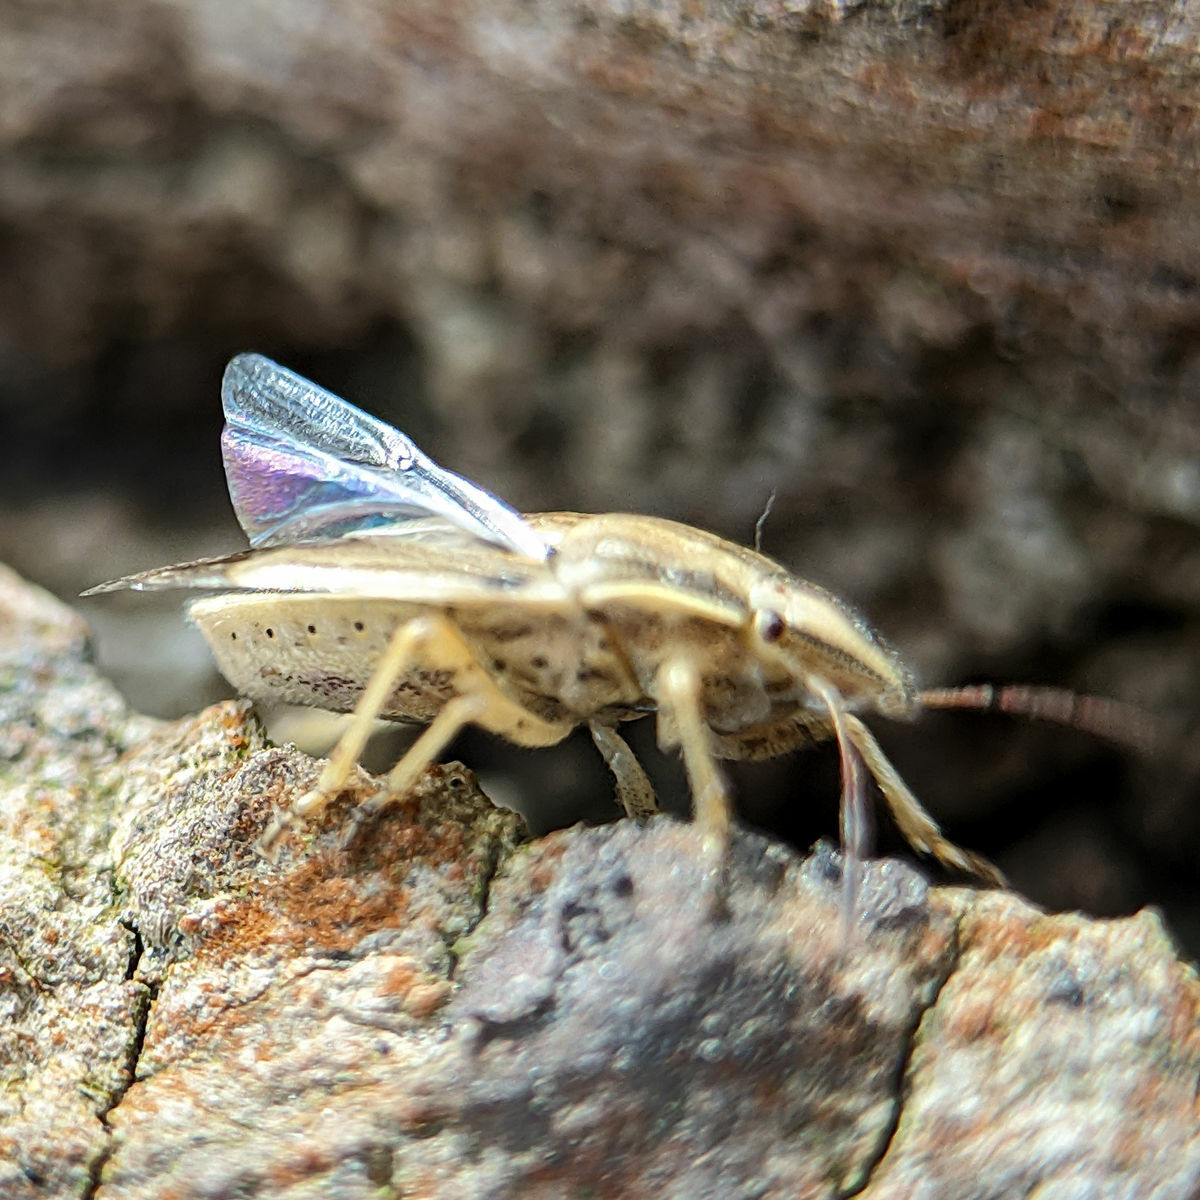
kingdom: Animalia
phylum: Arthropoda
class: Insecta
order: Hemiptera
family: Pentatomidae
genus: Aelia
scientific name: Aelia acuminata
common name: Bishop's mitre
